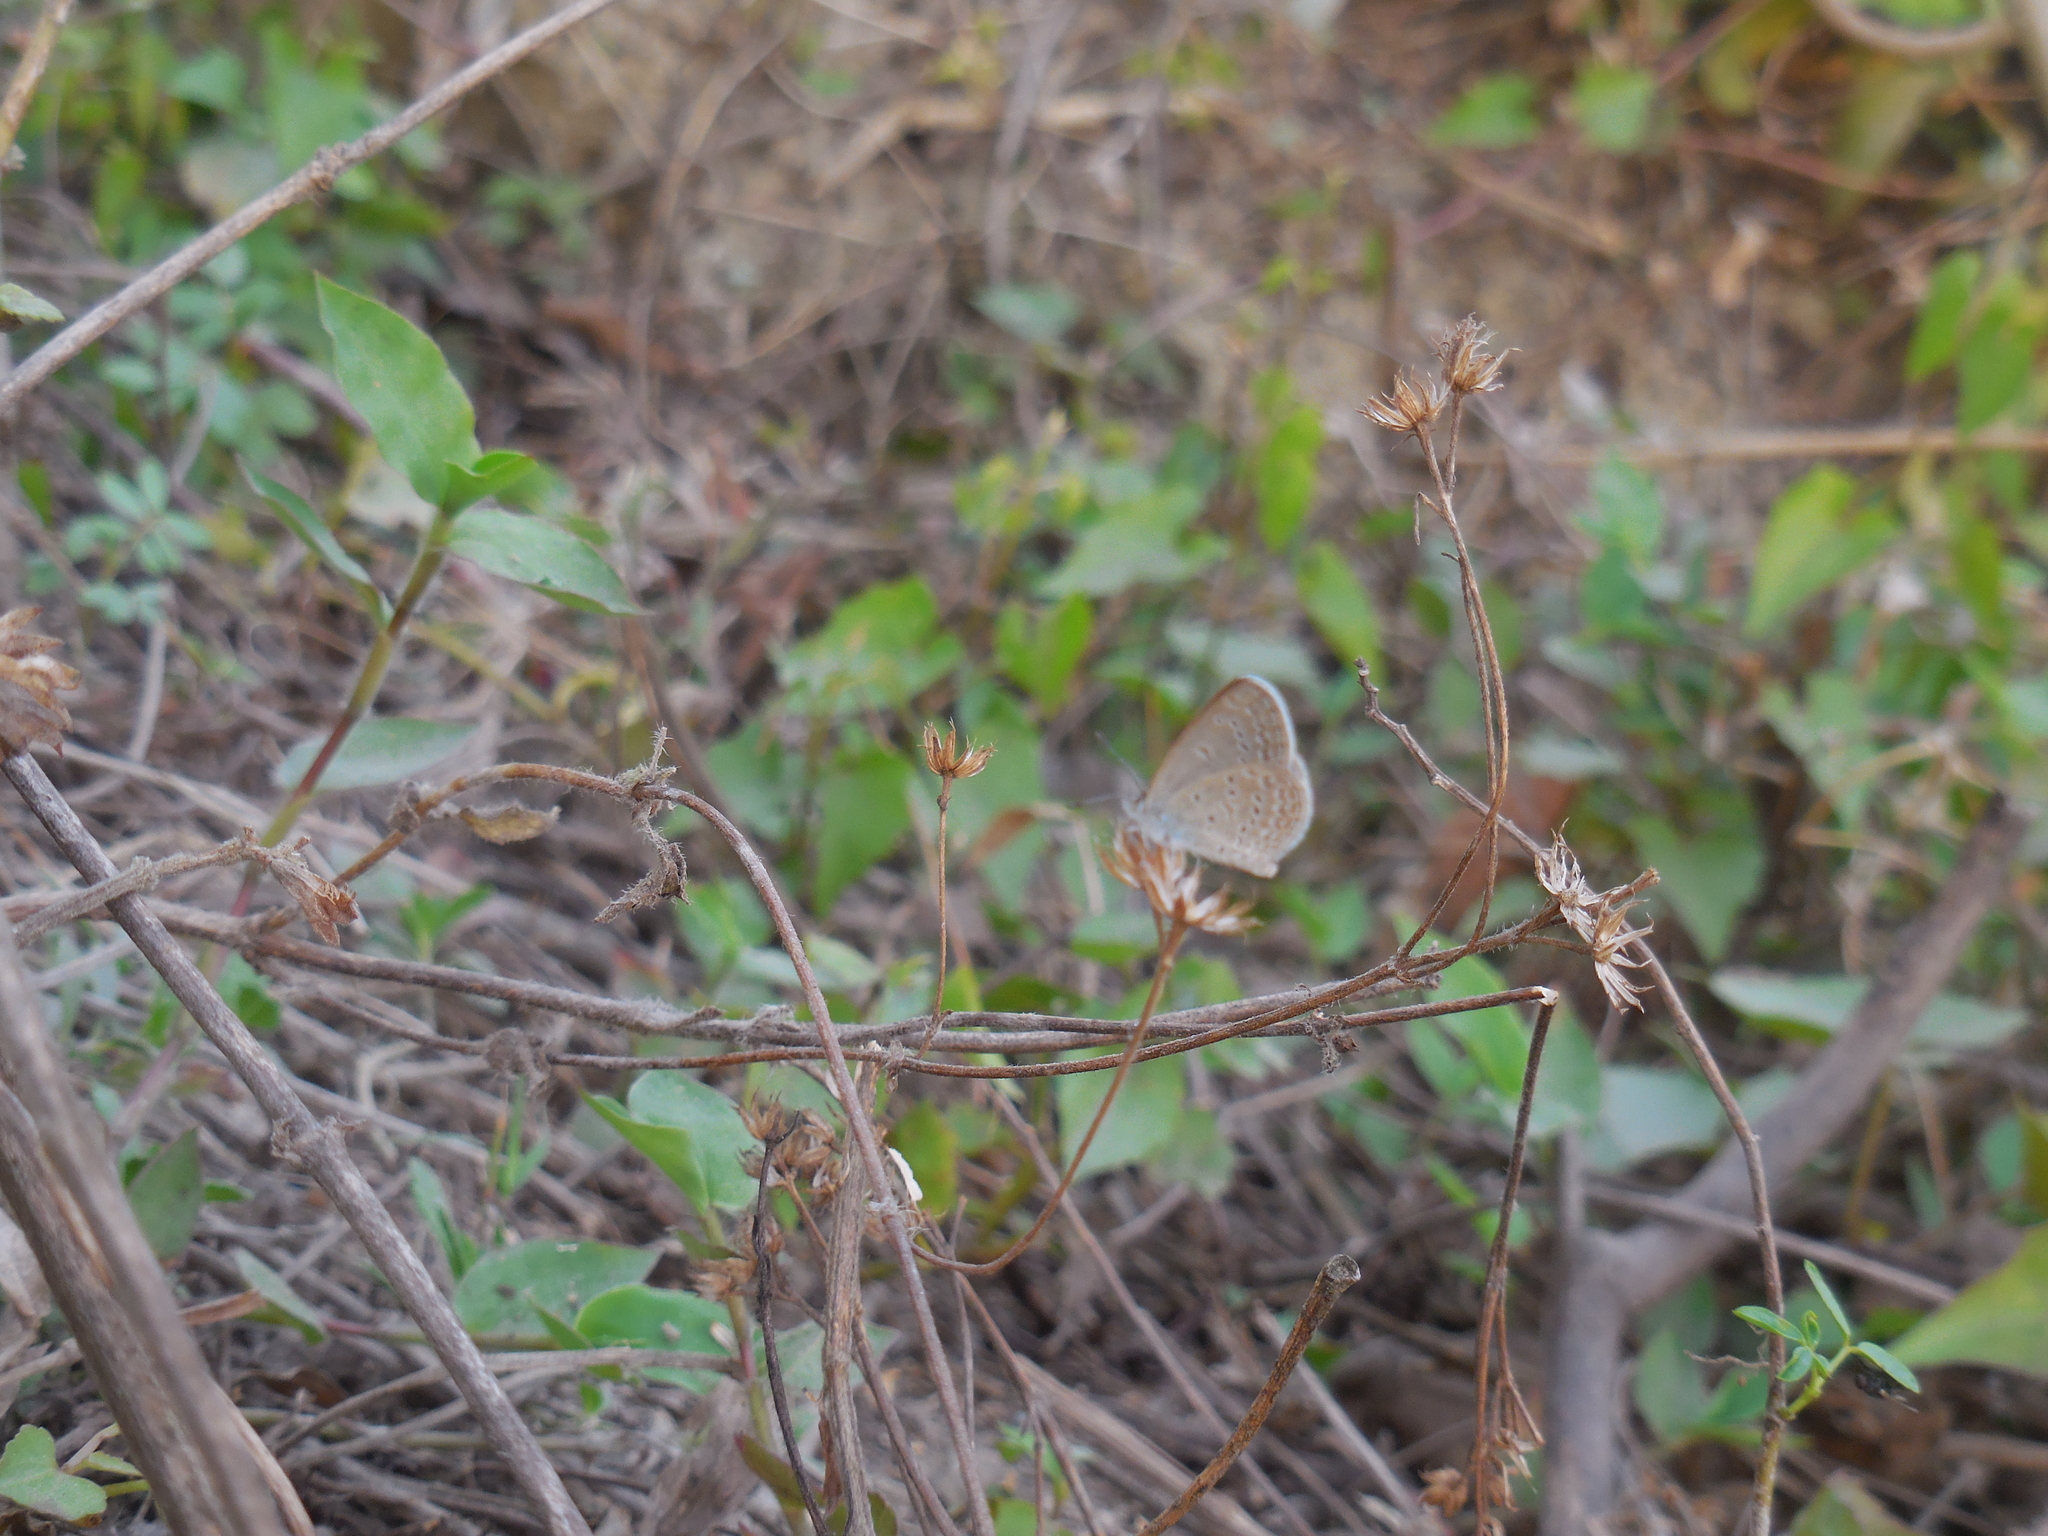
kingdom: Animalia
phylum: Arthropoda
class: Insecta
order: Lepidoptera
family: Lycaenidae
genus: Zizina
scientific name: Zizina otis
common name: Lesser grass blue
